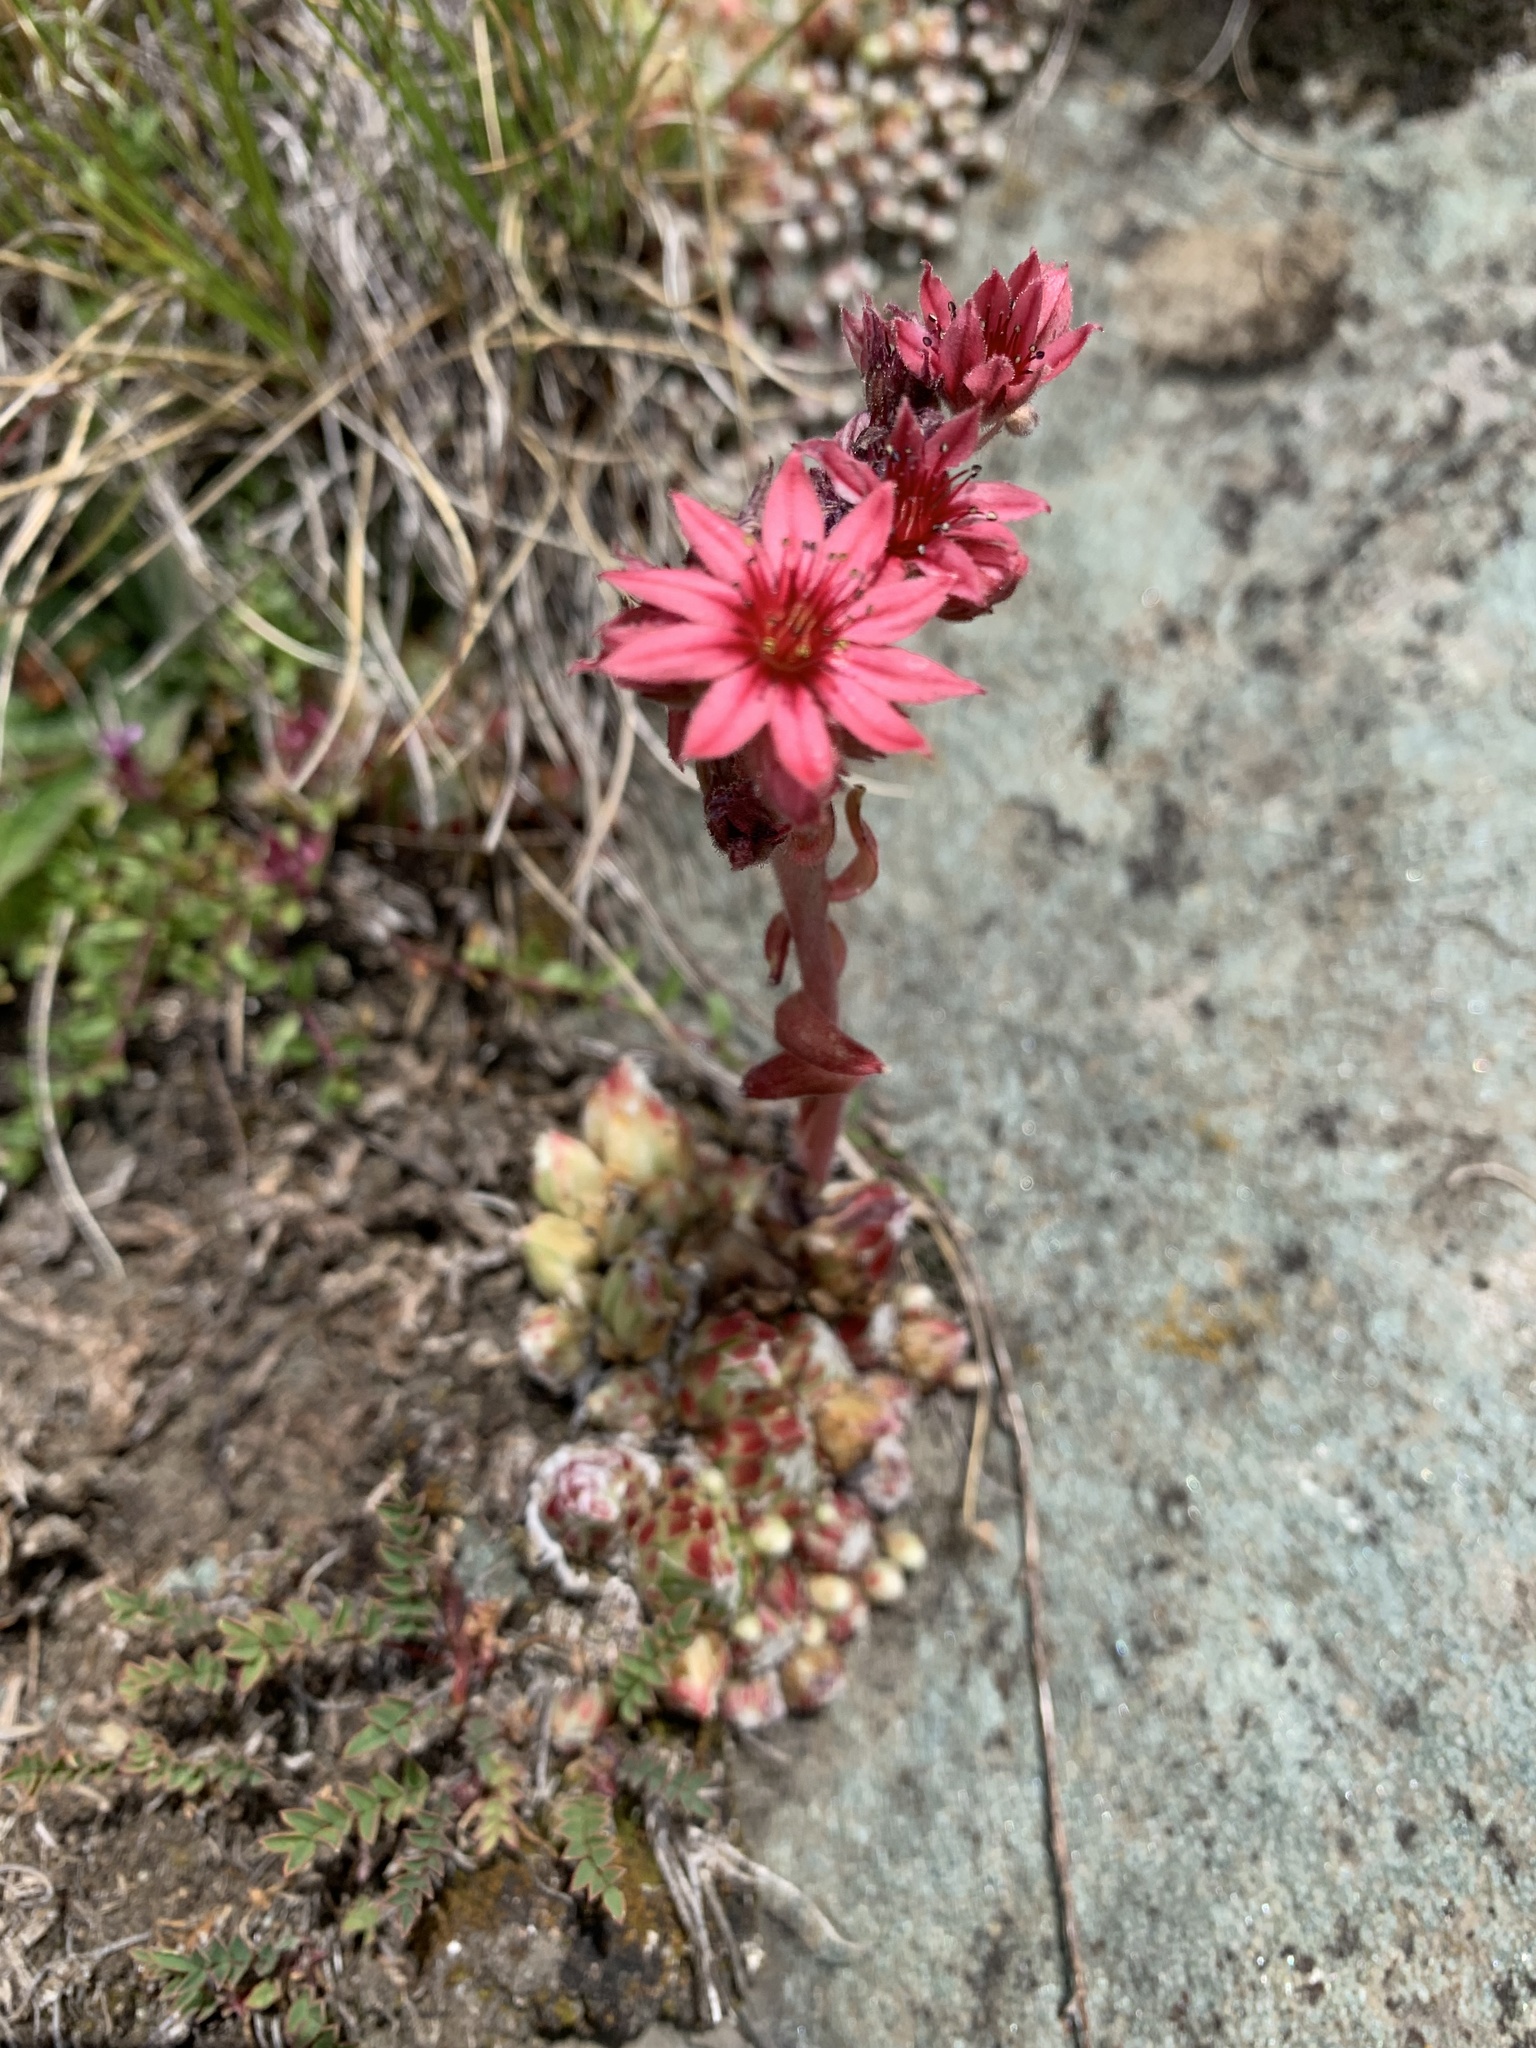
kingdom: Plantae
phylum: Tracheophyta
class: Magnoliopsida
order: Saxifragales
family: Crassulaceae
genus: Sempervivum
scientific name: Sempervivum arachnoideum
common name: Cobweb house-leek
